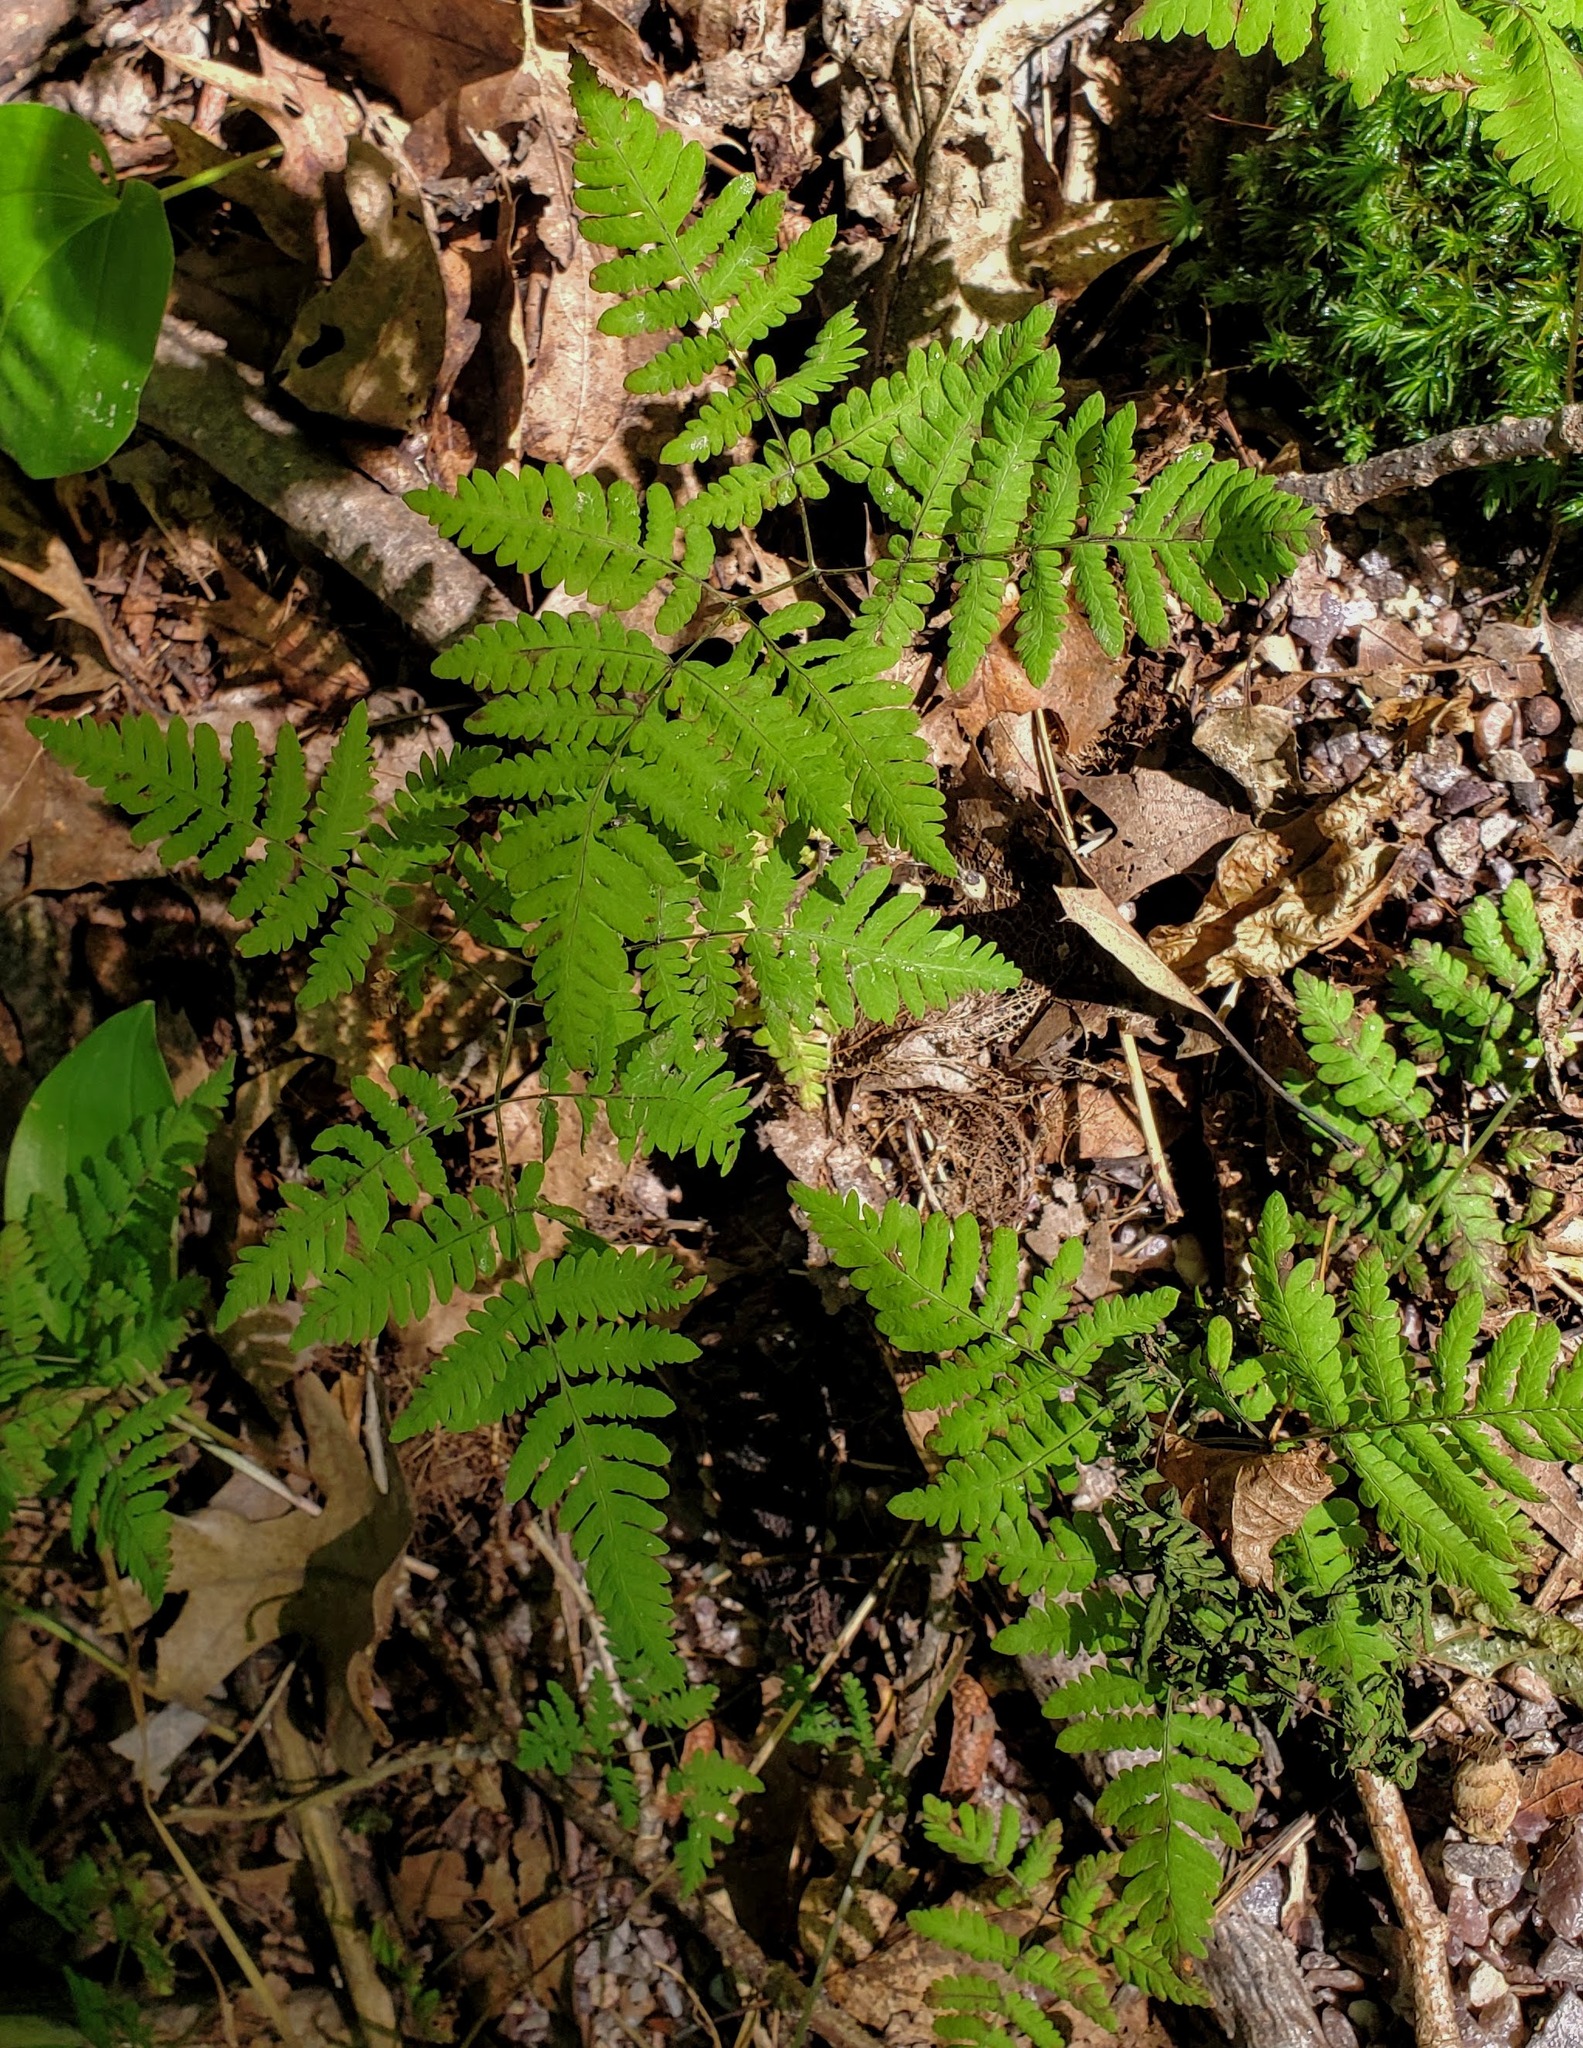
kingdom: Plantae
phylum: Tracheophyta
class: Polypodiopsida
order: Polypodiales
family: Cystopteridaceae
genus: Gymnocarpium
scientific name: Gymnocarpium dryopteris
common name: Oak fern
